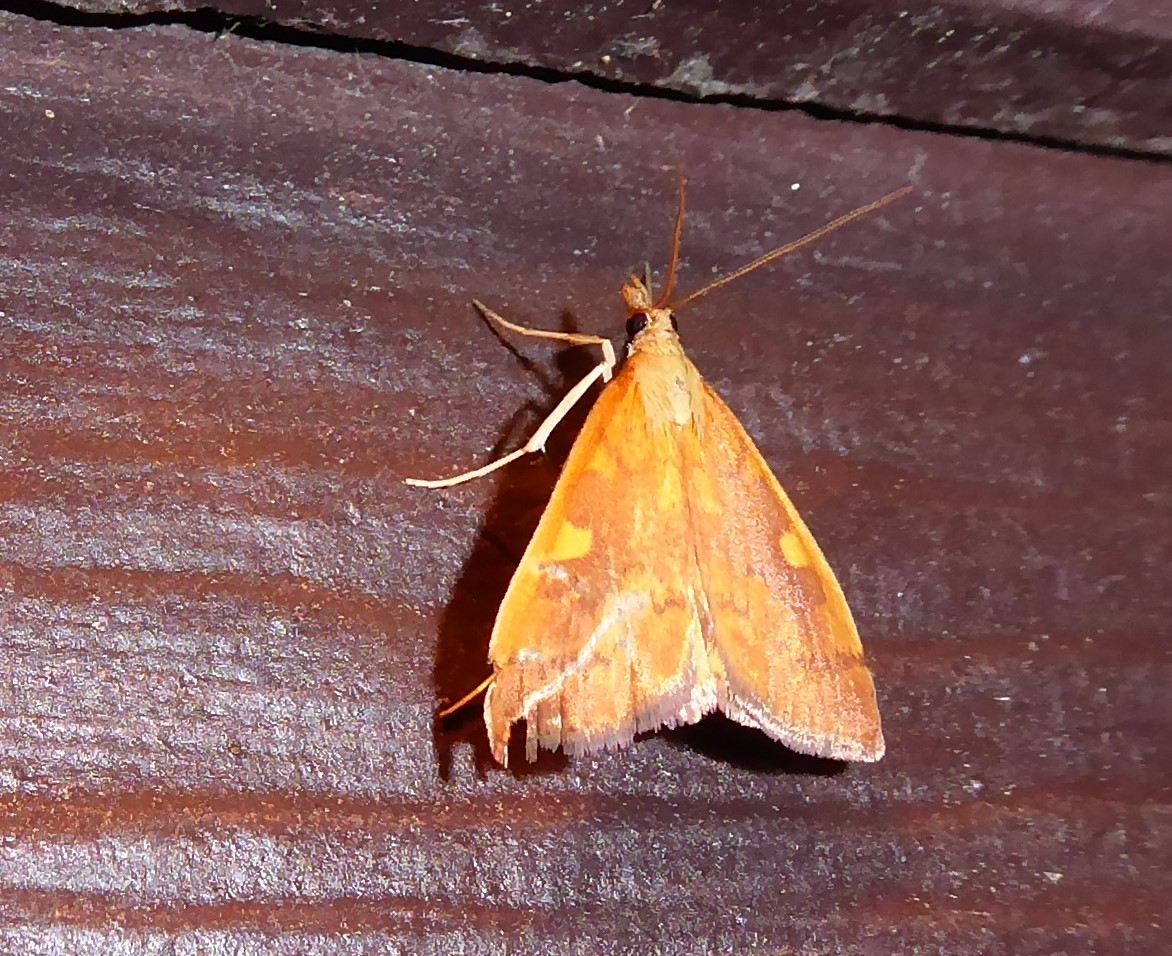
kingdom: Animalia
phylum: Arthropoda
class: Insecta
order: Lepidoptera
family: Crambidae
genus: Udea
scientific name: Udea Mnesictena flavidalis
